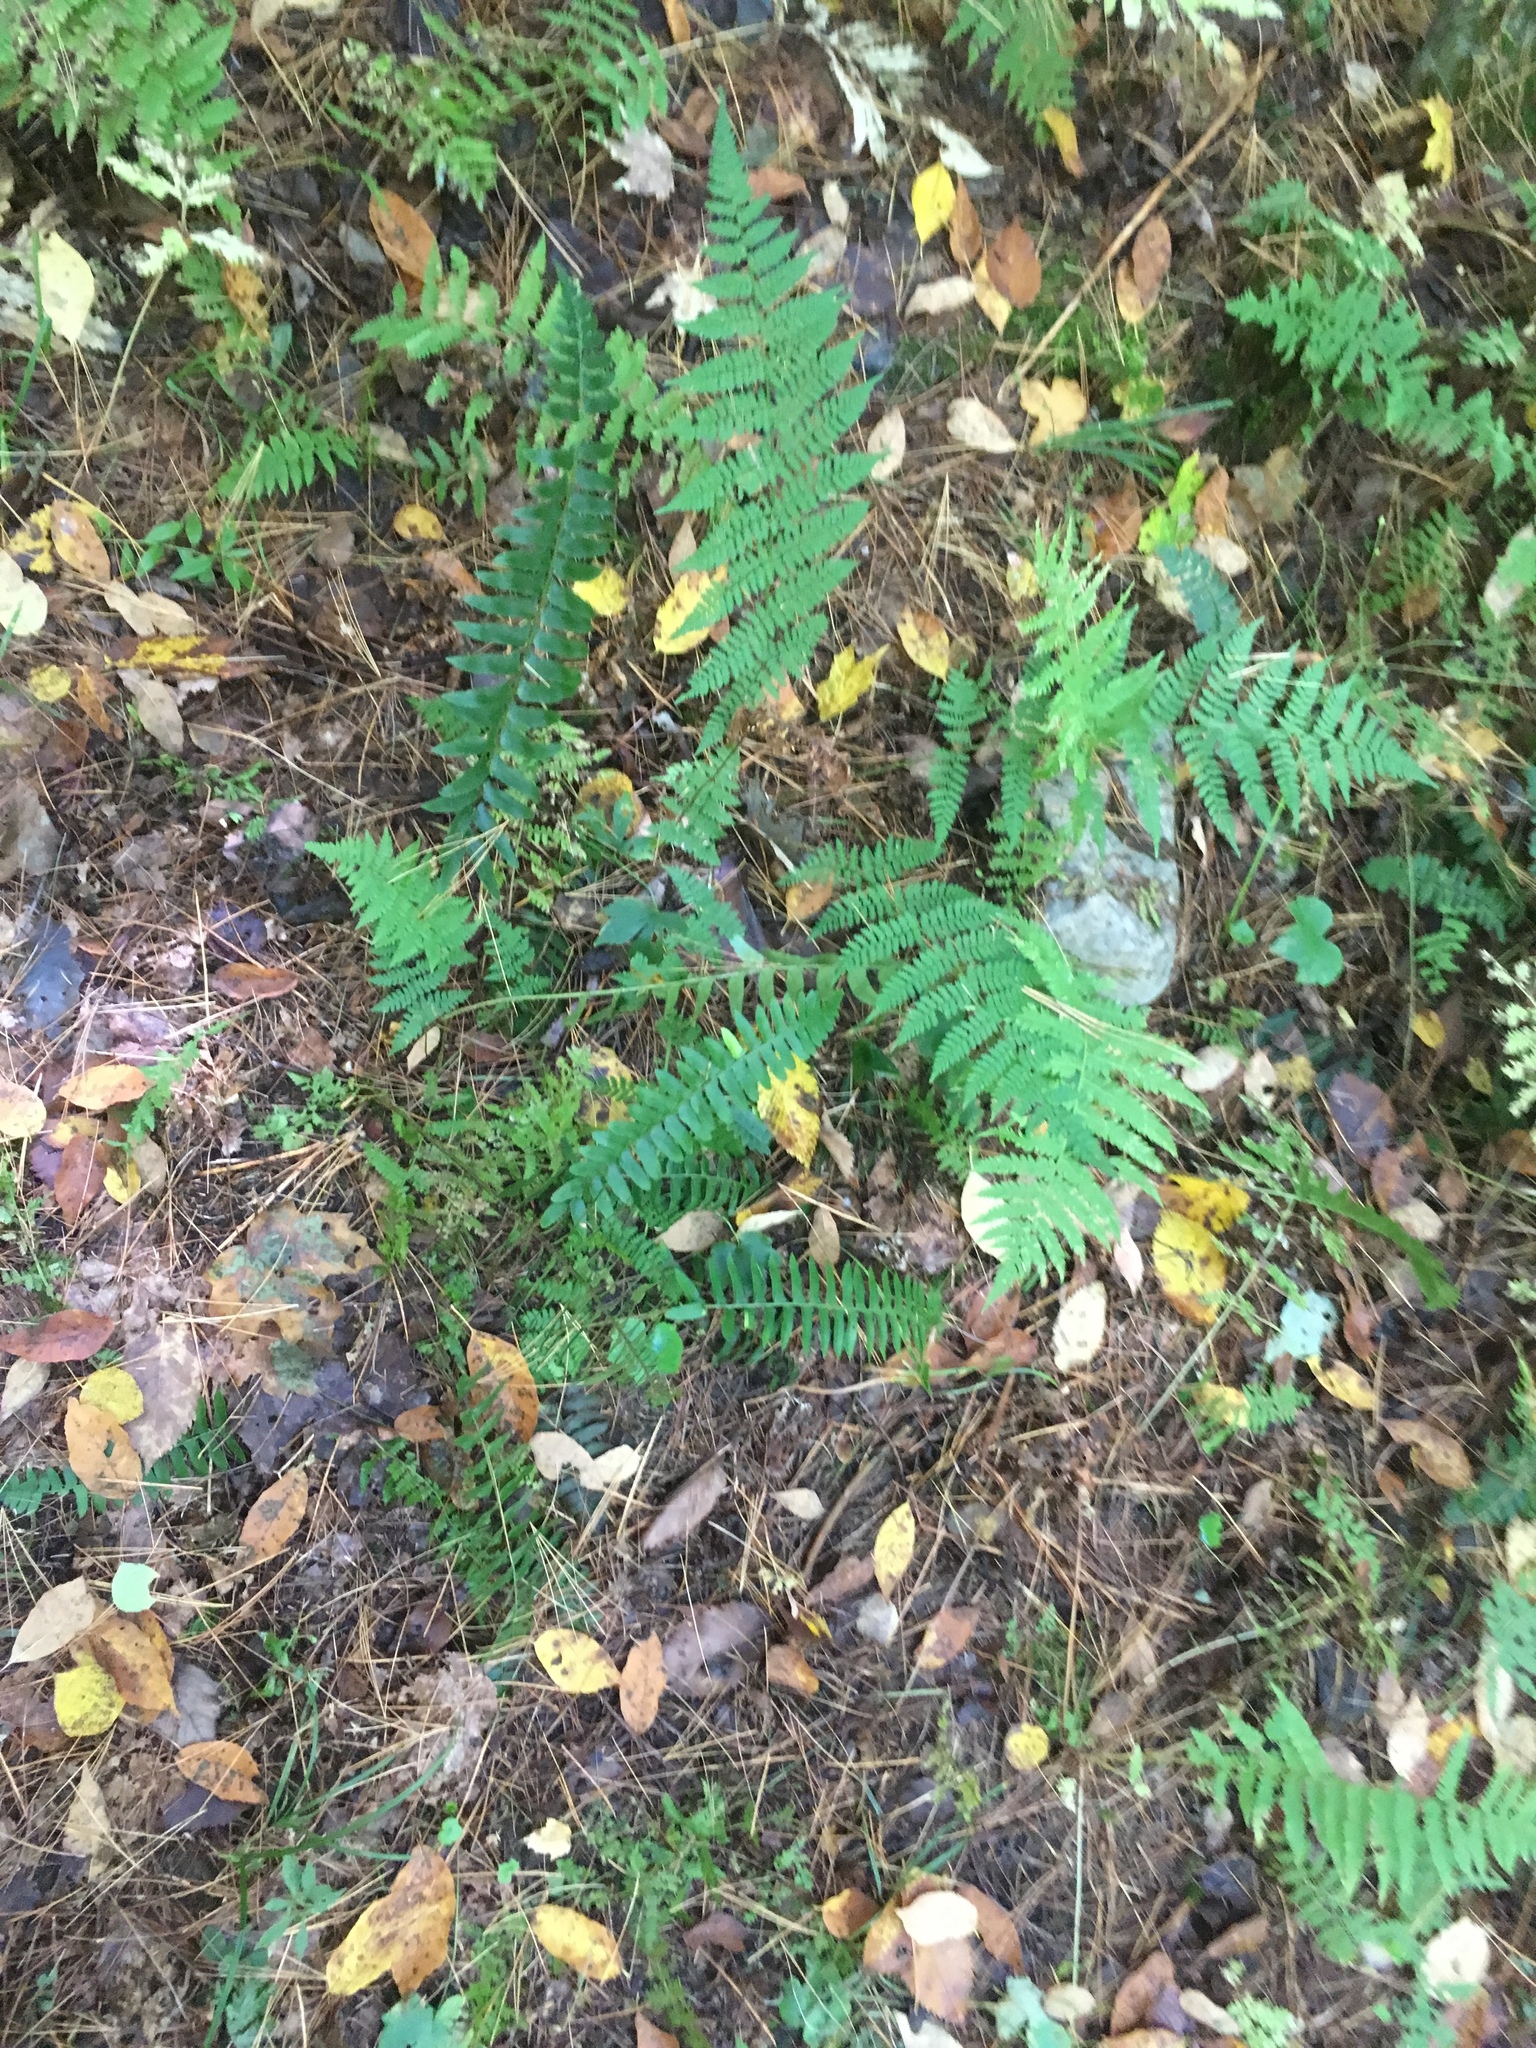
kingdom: Plantae
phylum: Tracheophyta
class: Polypodiopsida
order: Polypodiales
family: Dryopteridaceae
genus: Polystichum
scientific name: Polystichum acrostichoides
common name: Christmas fern
